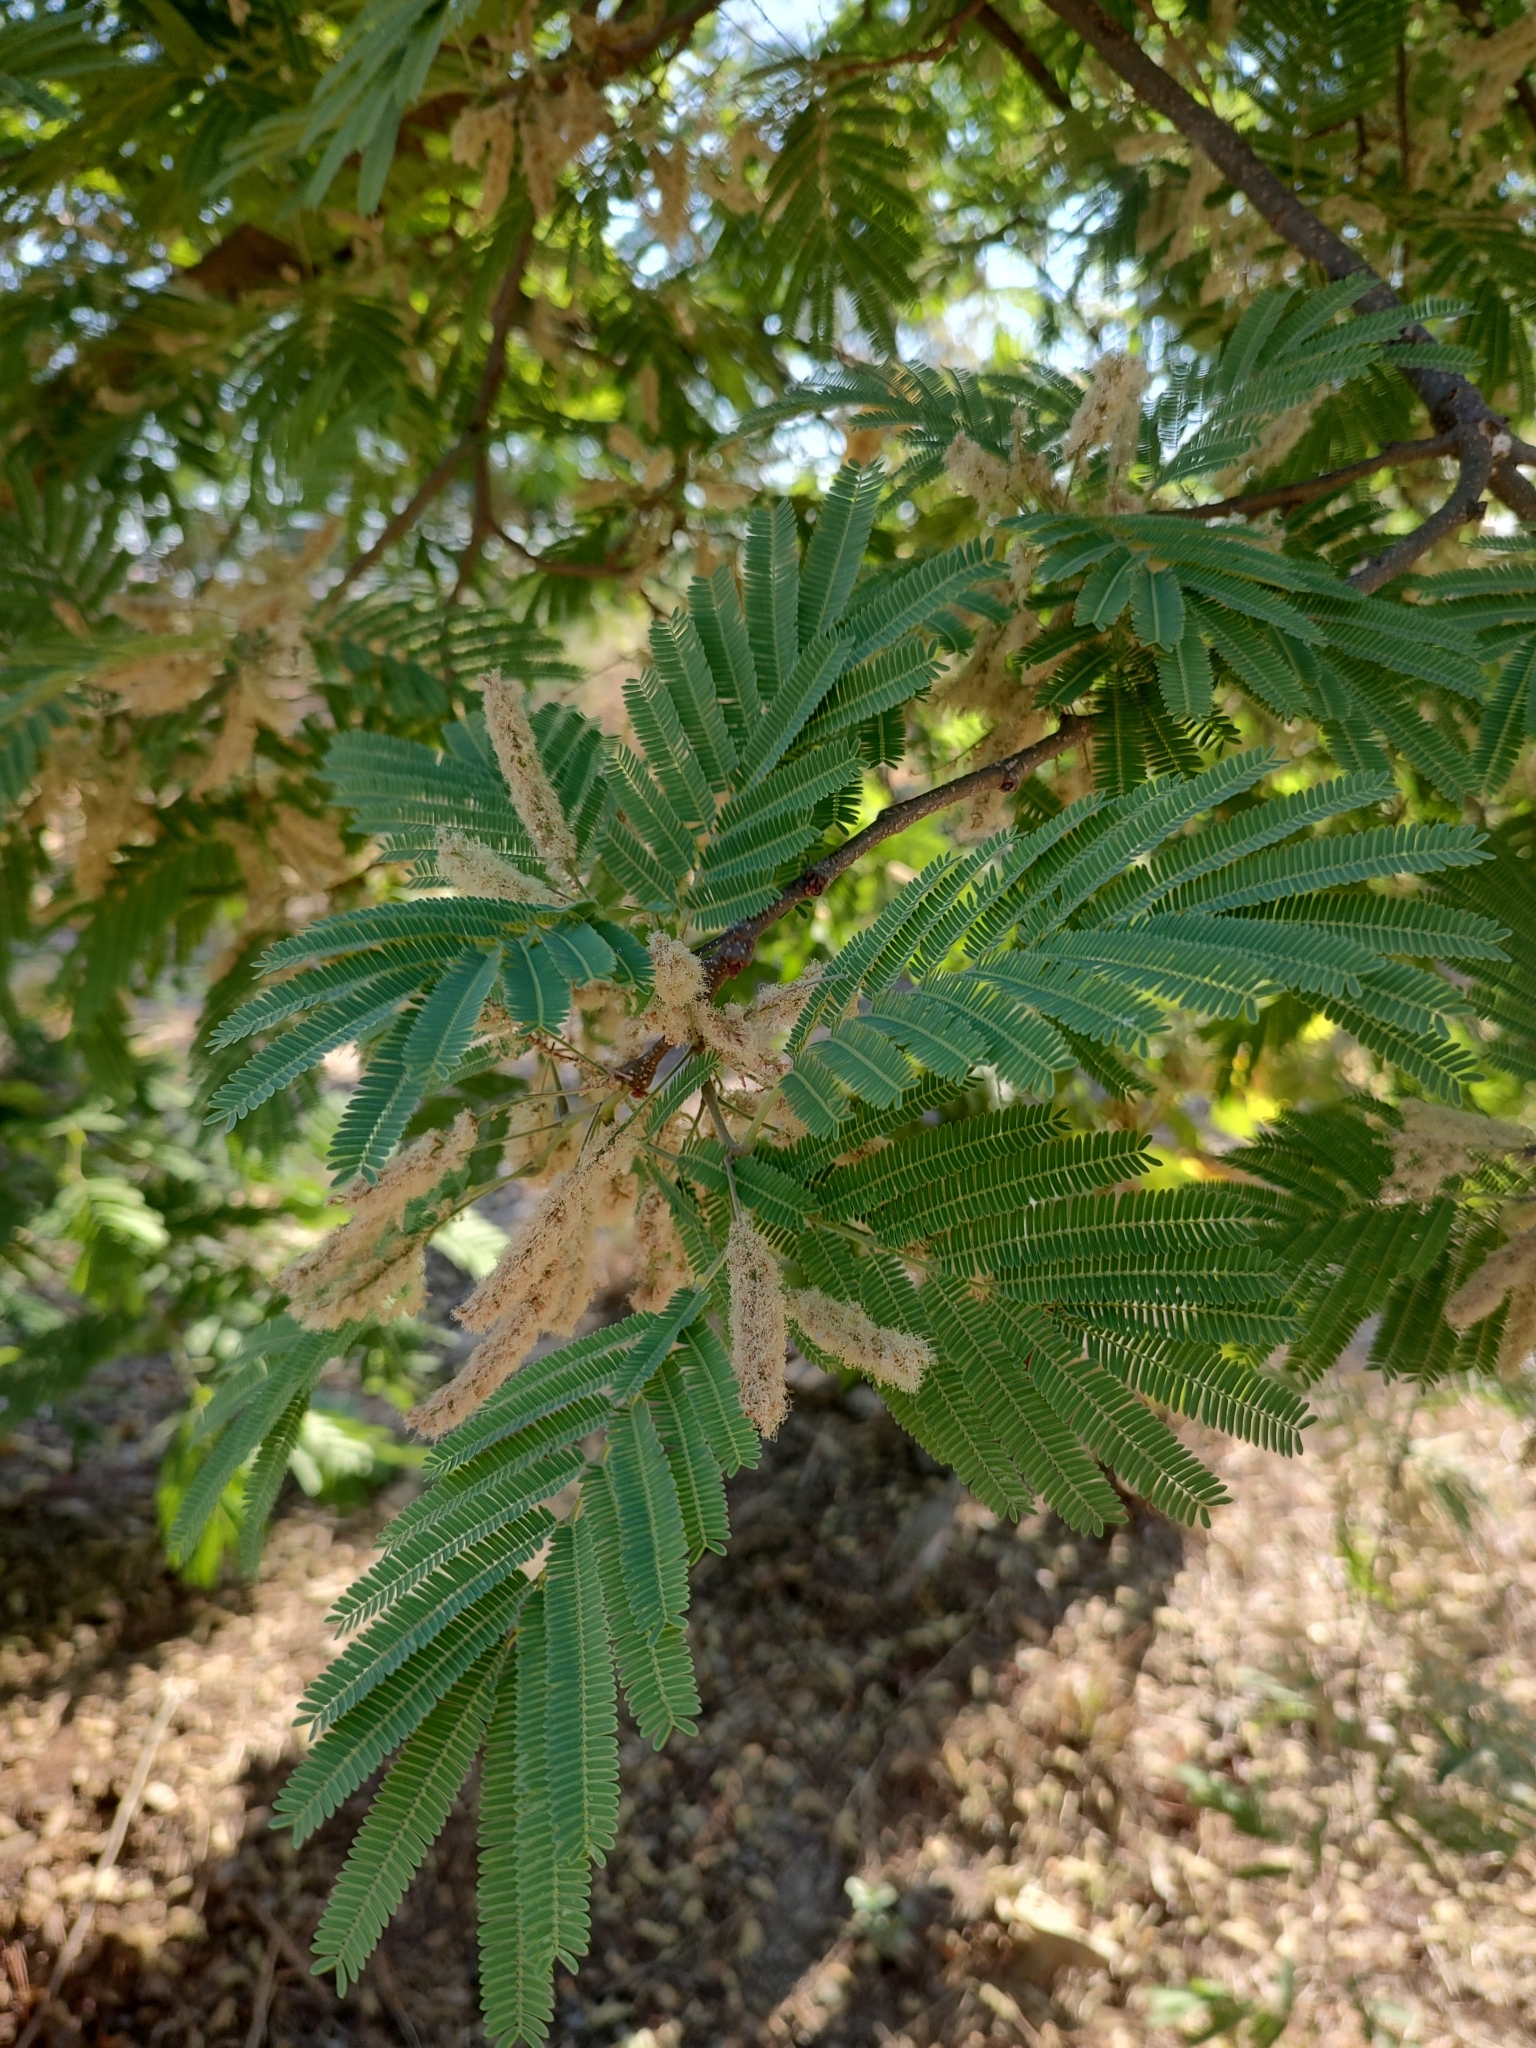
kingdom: Plantae
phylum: Tracheophyta
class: Magnoliopsida
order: Fabales
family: Fabaceae
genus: Lysiloma
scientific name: Lysiloma acapulcense
